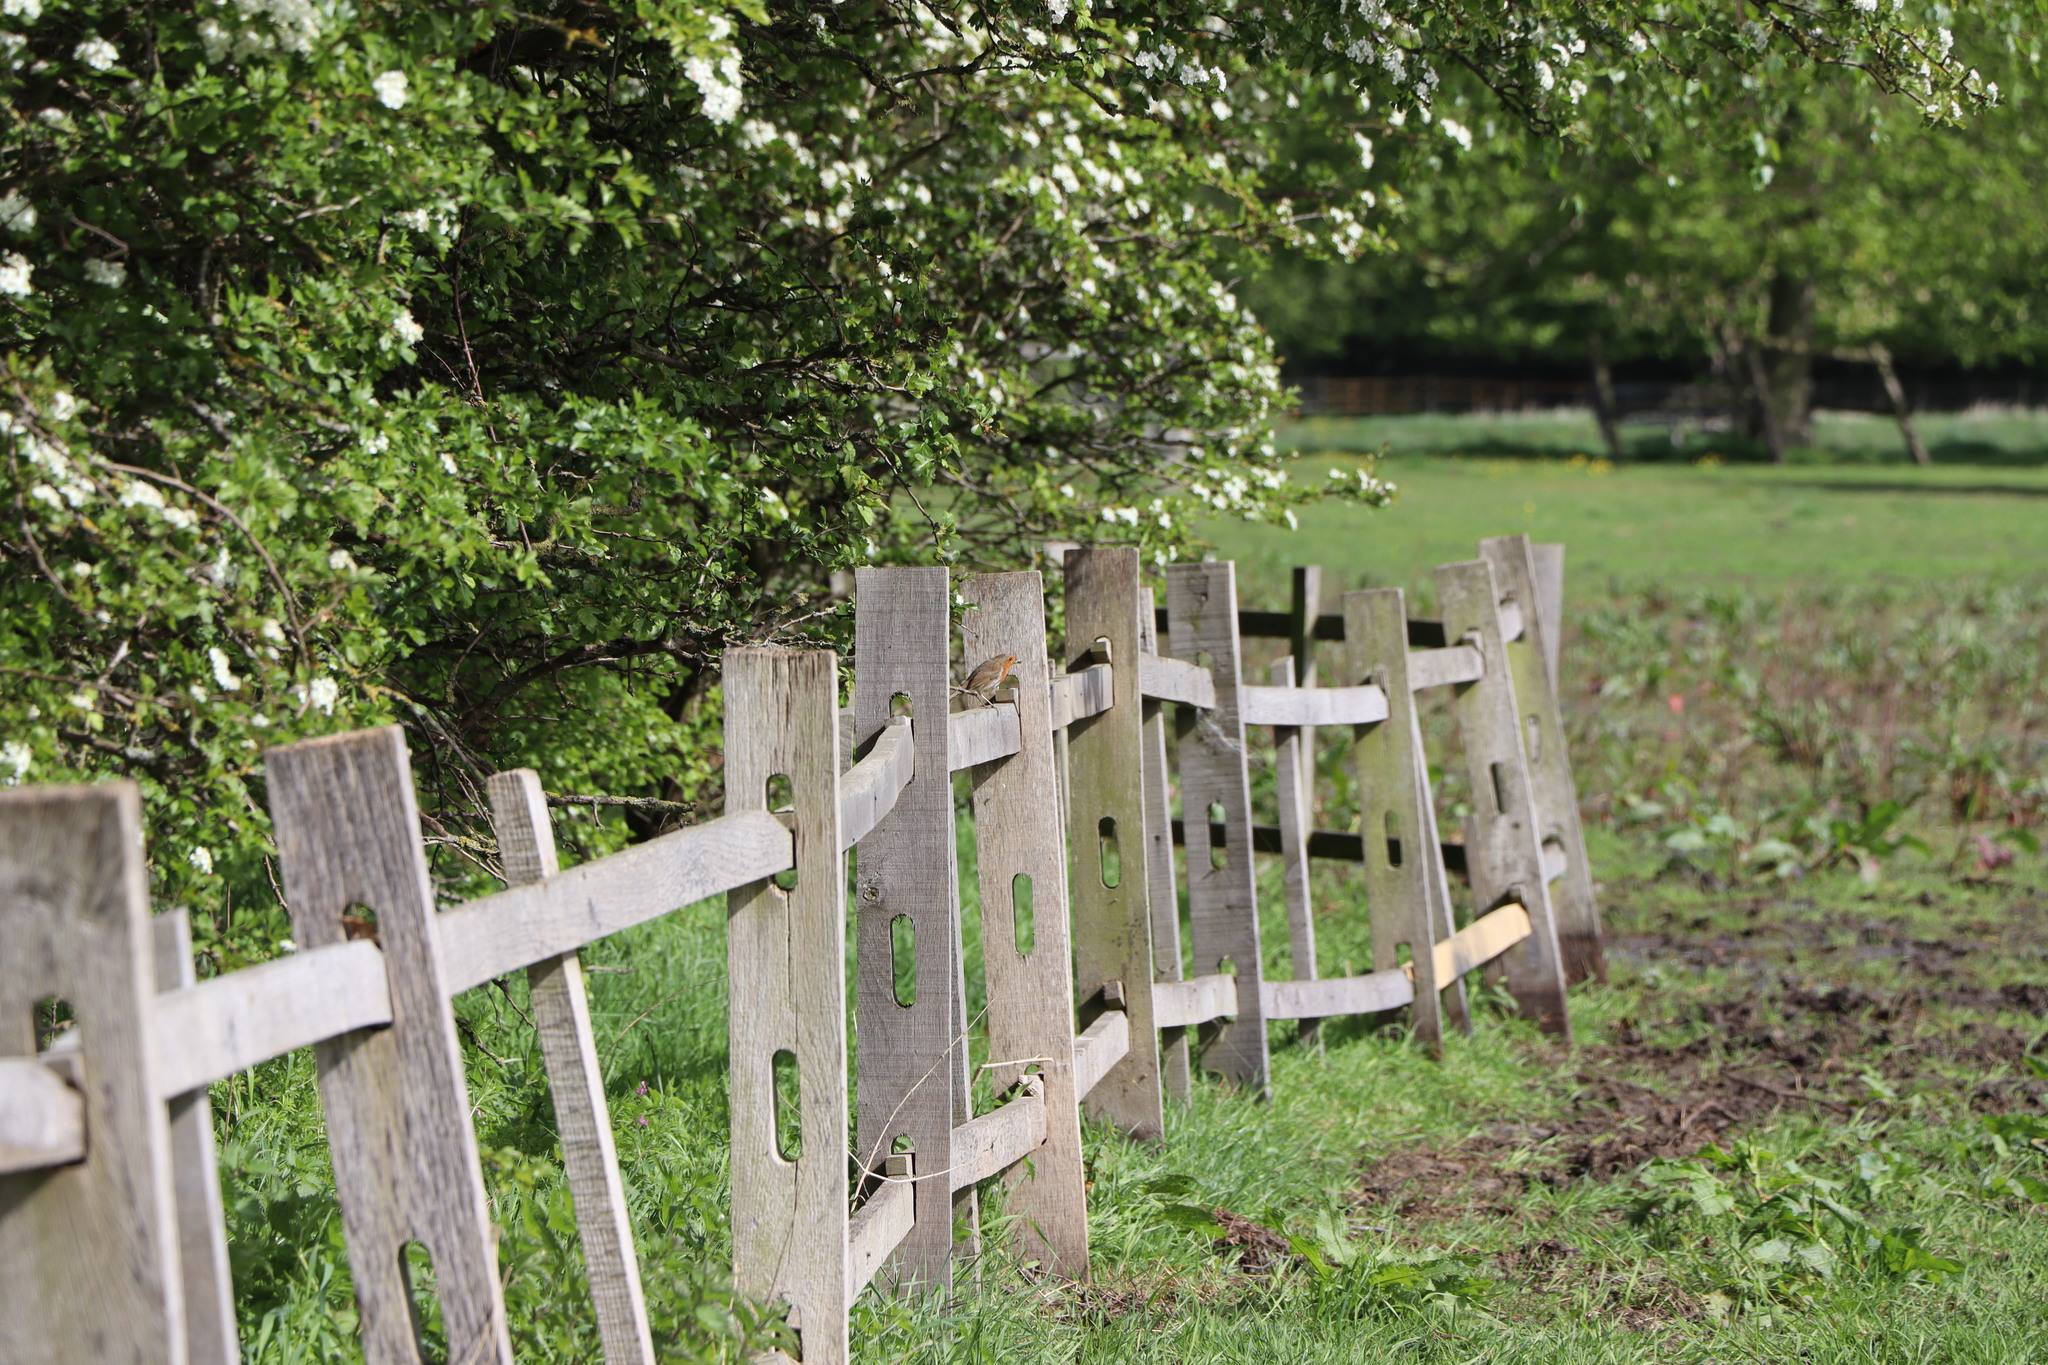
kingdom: Animalia
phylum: Chordata
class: Aves
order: Passeriformes
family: Muscicapidae
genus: Erithacus
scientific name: Erithacus rubecula
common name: European robin
